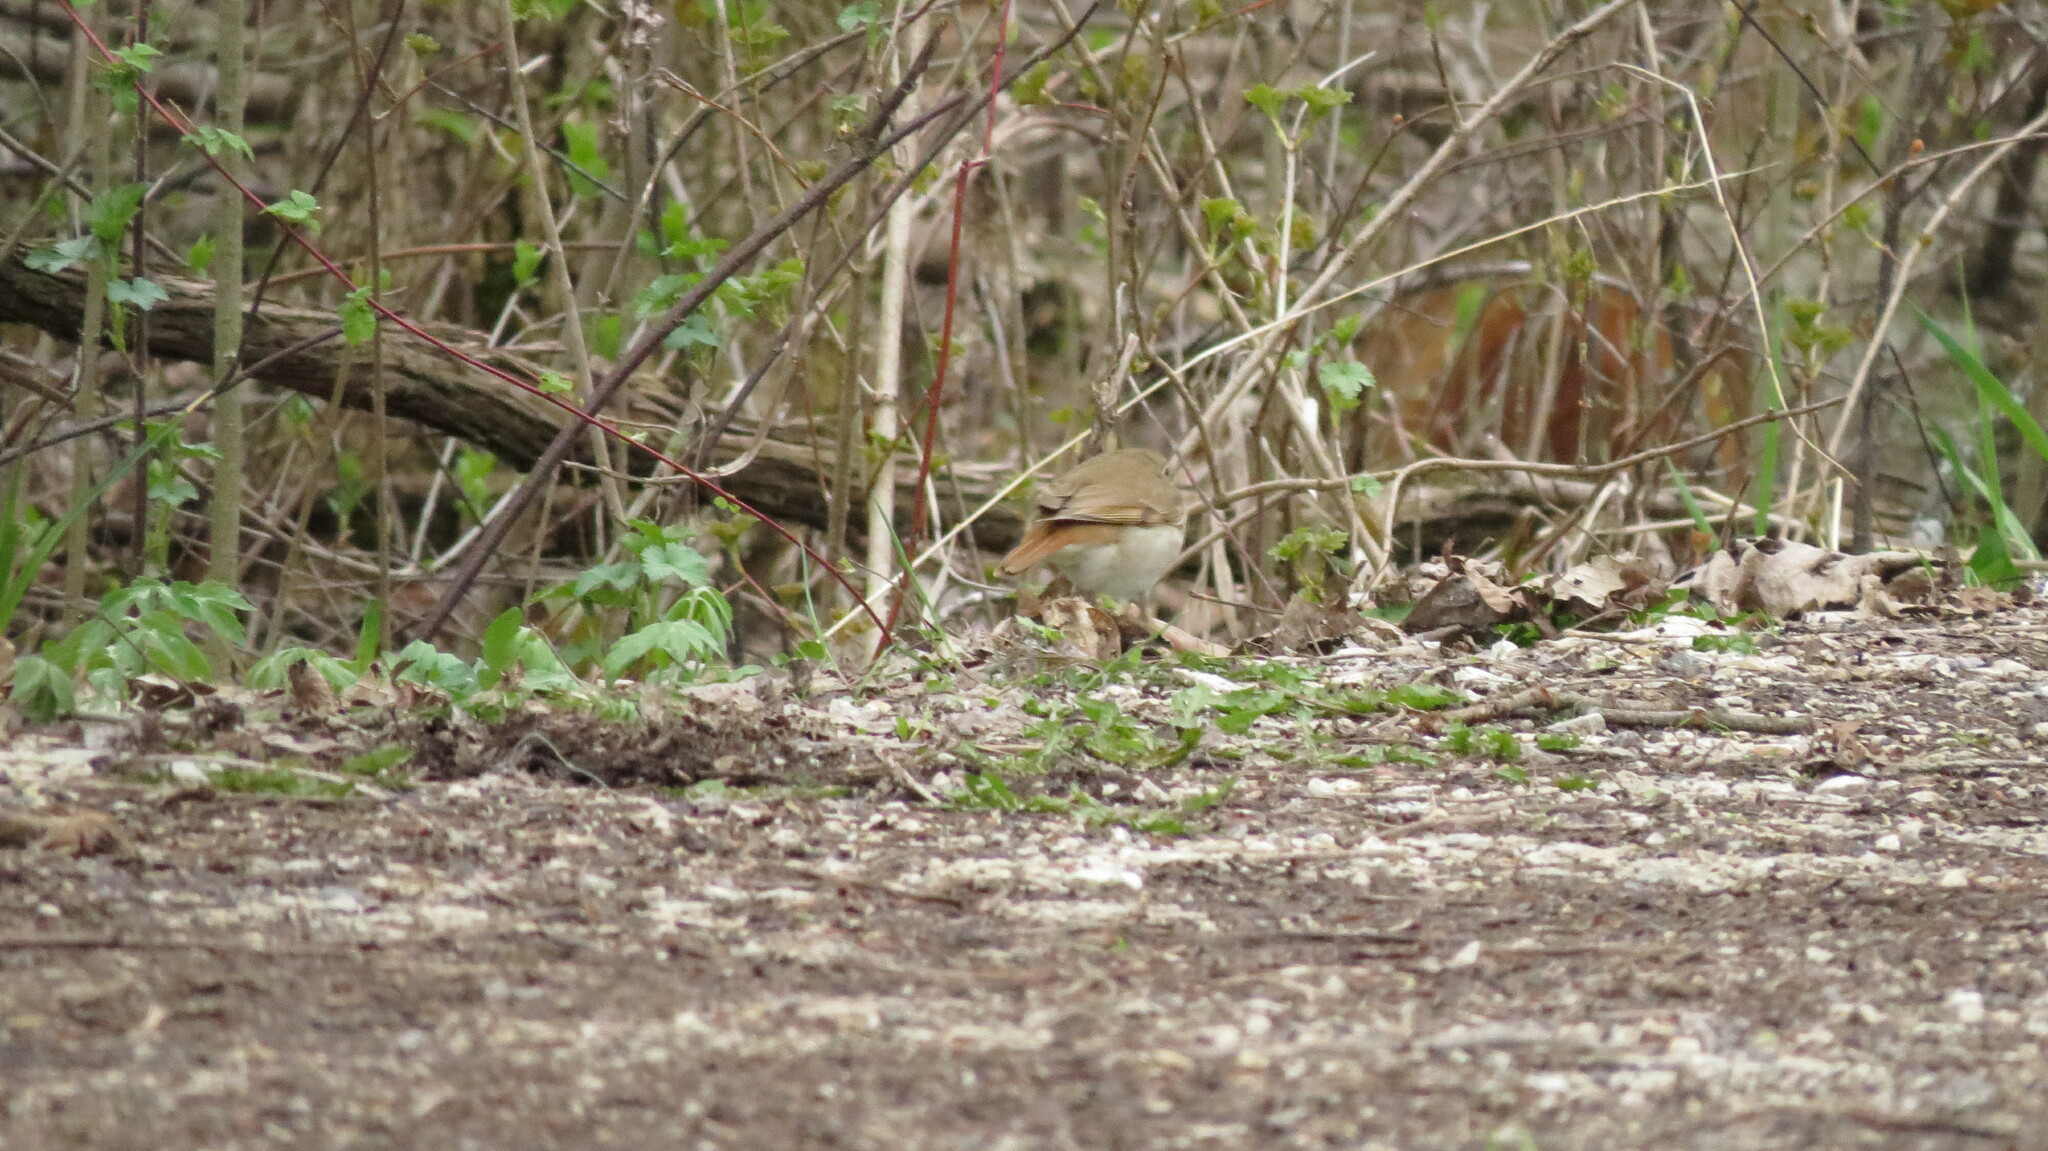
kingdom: Animalia
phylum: Chordata
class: Aves
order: Passeriformes
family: Turdidae
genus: Catharus
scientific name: Catharus guttatus
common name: Hermit thrush
